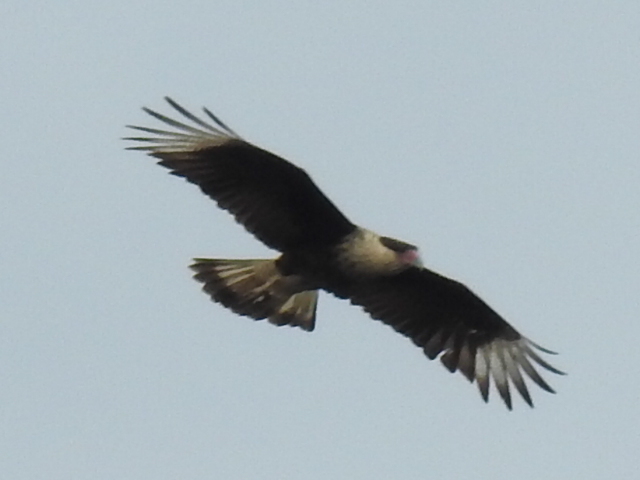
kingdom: Animalia
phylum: Chordata
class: Aves
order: Falconiformes
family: Falconidae
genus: Caracara
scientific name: Caracara plancus
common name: Southern caracara
